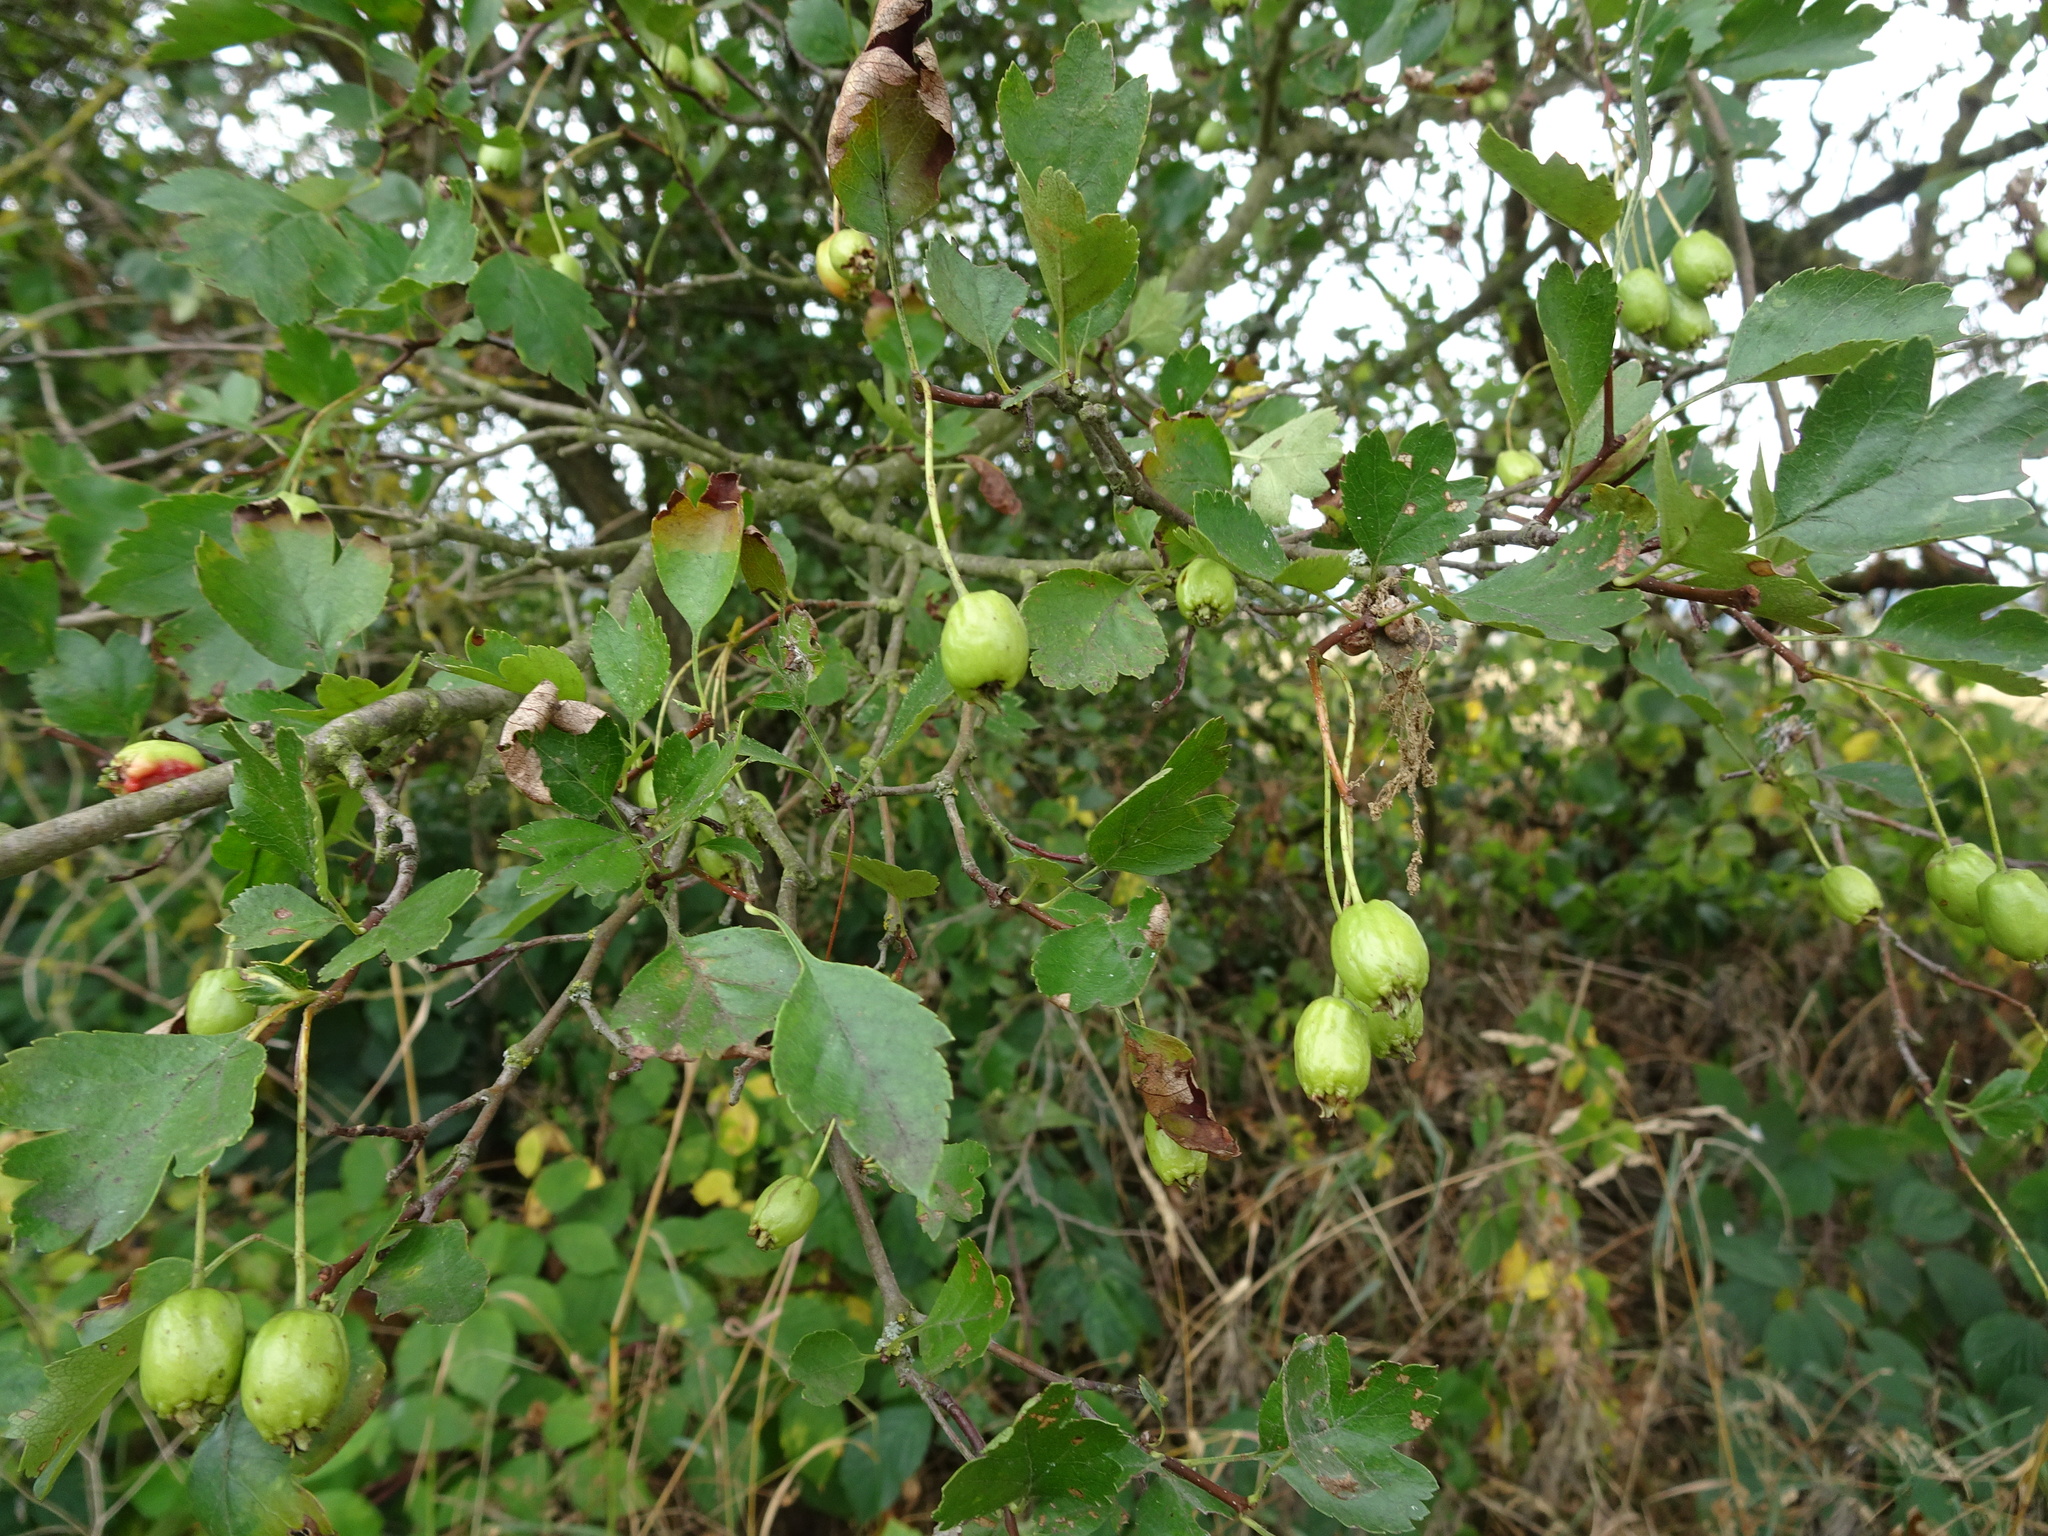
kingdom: Plantae
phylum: Tracheophyta
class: Magnoliopsida
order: Rosales
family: Rosaceae
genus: Crataegus
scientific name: Crataegus monogyna
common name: Hawthorn
